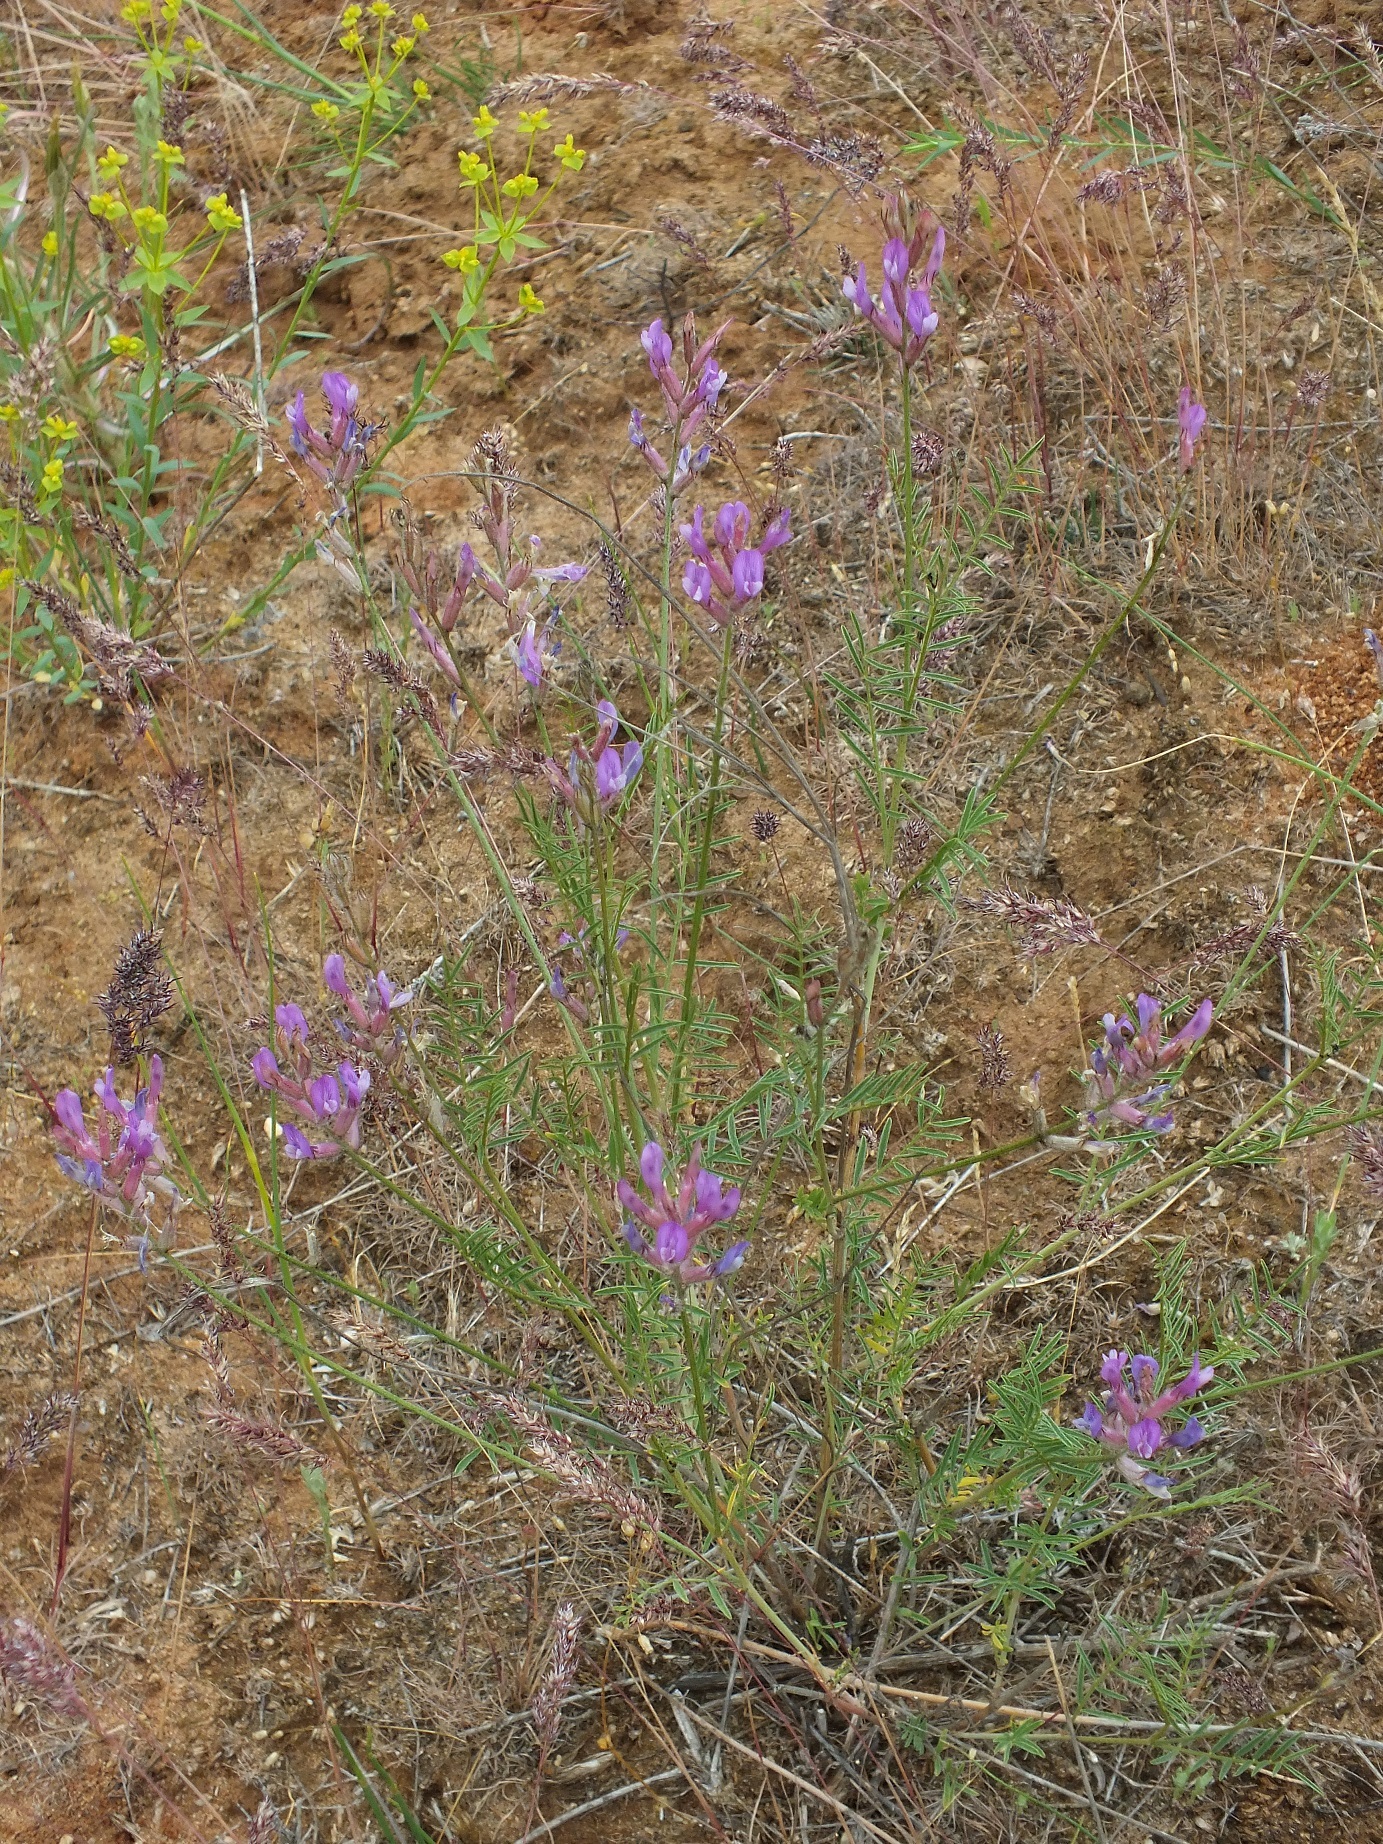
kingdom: Plantae
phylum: Tracheophyta
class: Magnoliopsida
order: Fabales
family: Fabaceae
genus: Astragalus
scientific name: Astragalus skvortsovii
